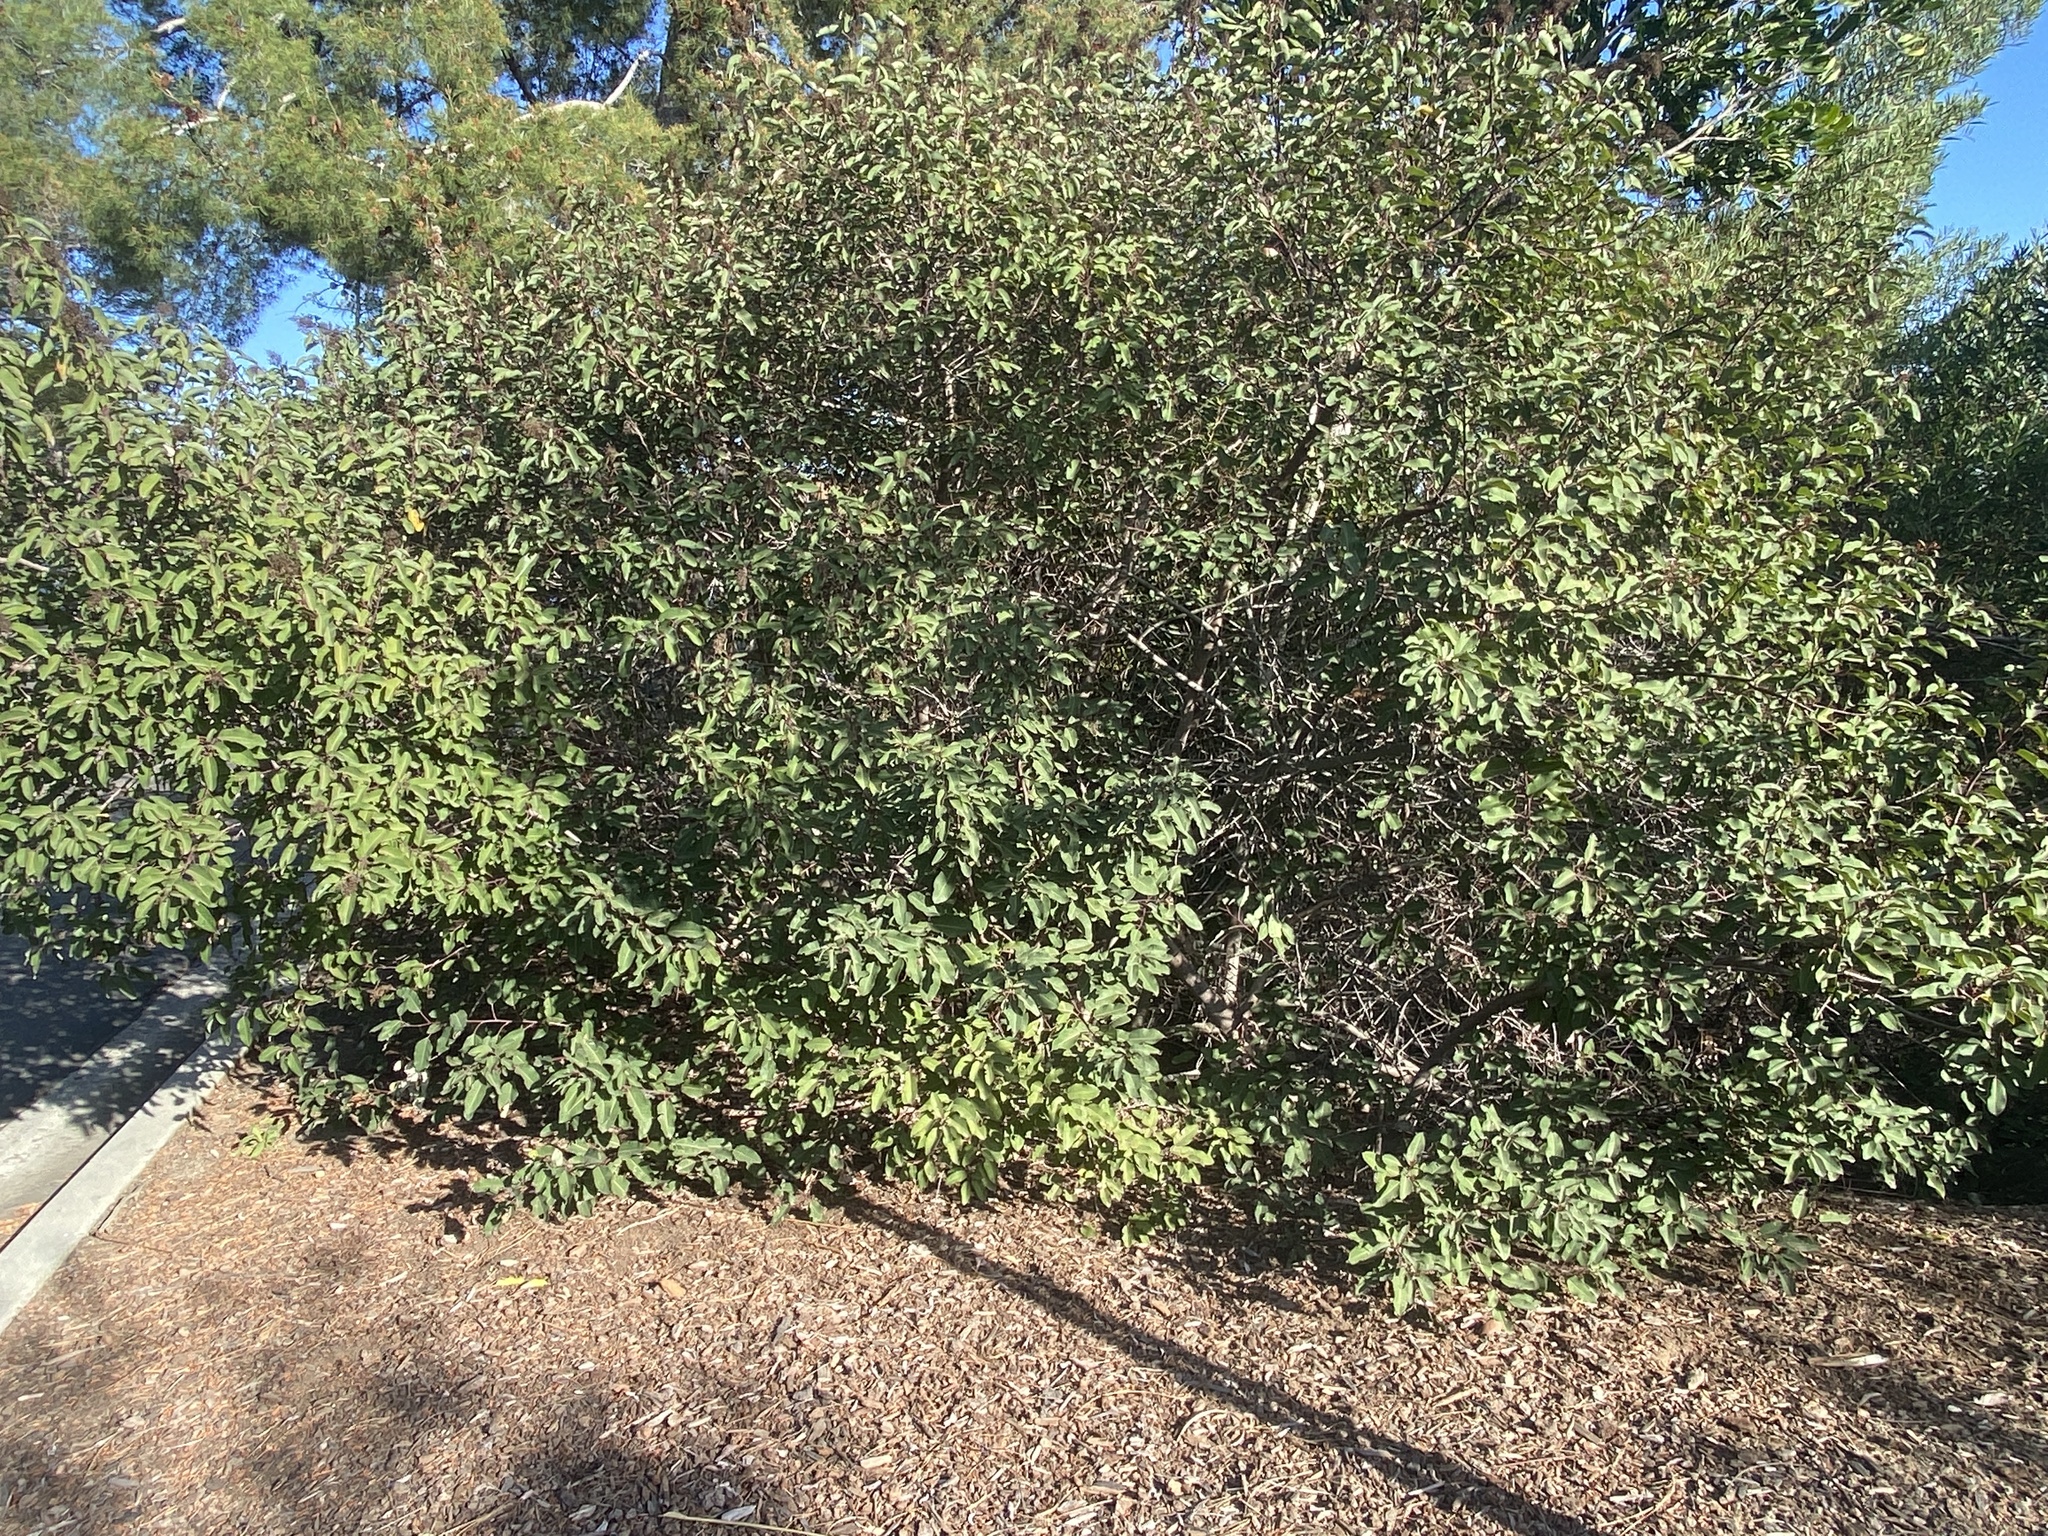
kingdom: Plantae
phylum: Tracheophyta
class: Magnoliopsida
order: Sapindales
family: Anacardiaceae
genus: Malosma
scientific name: Malosma laurina
